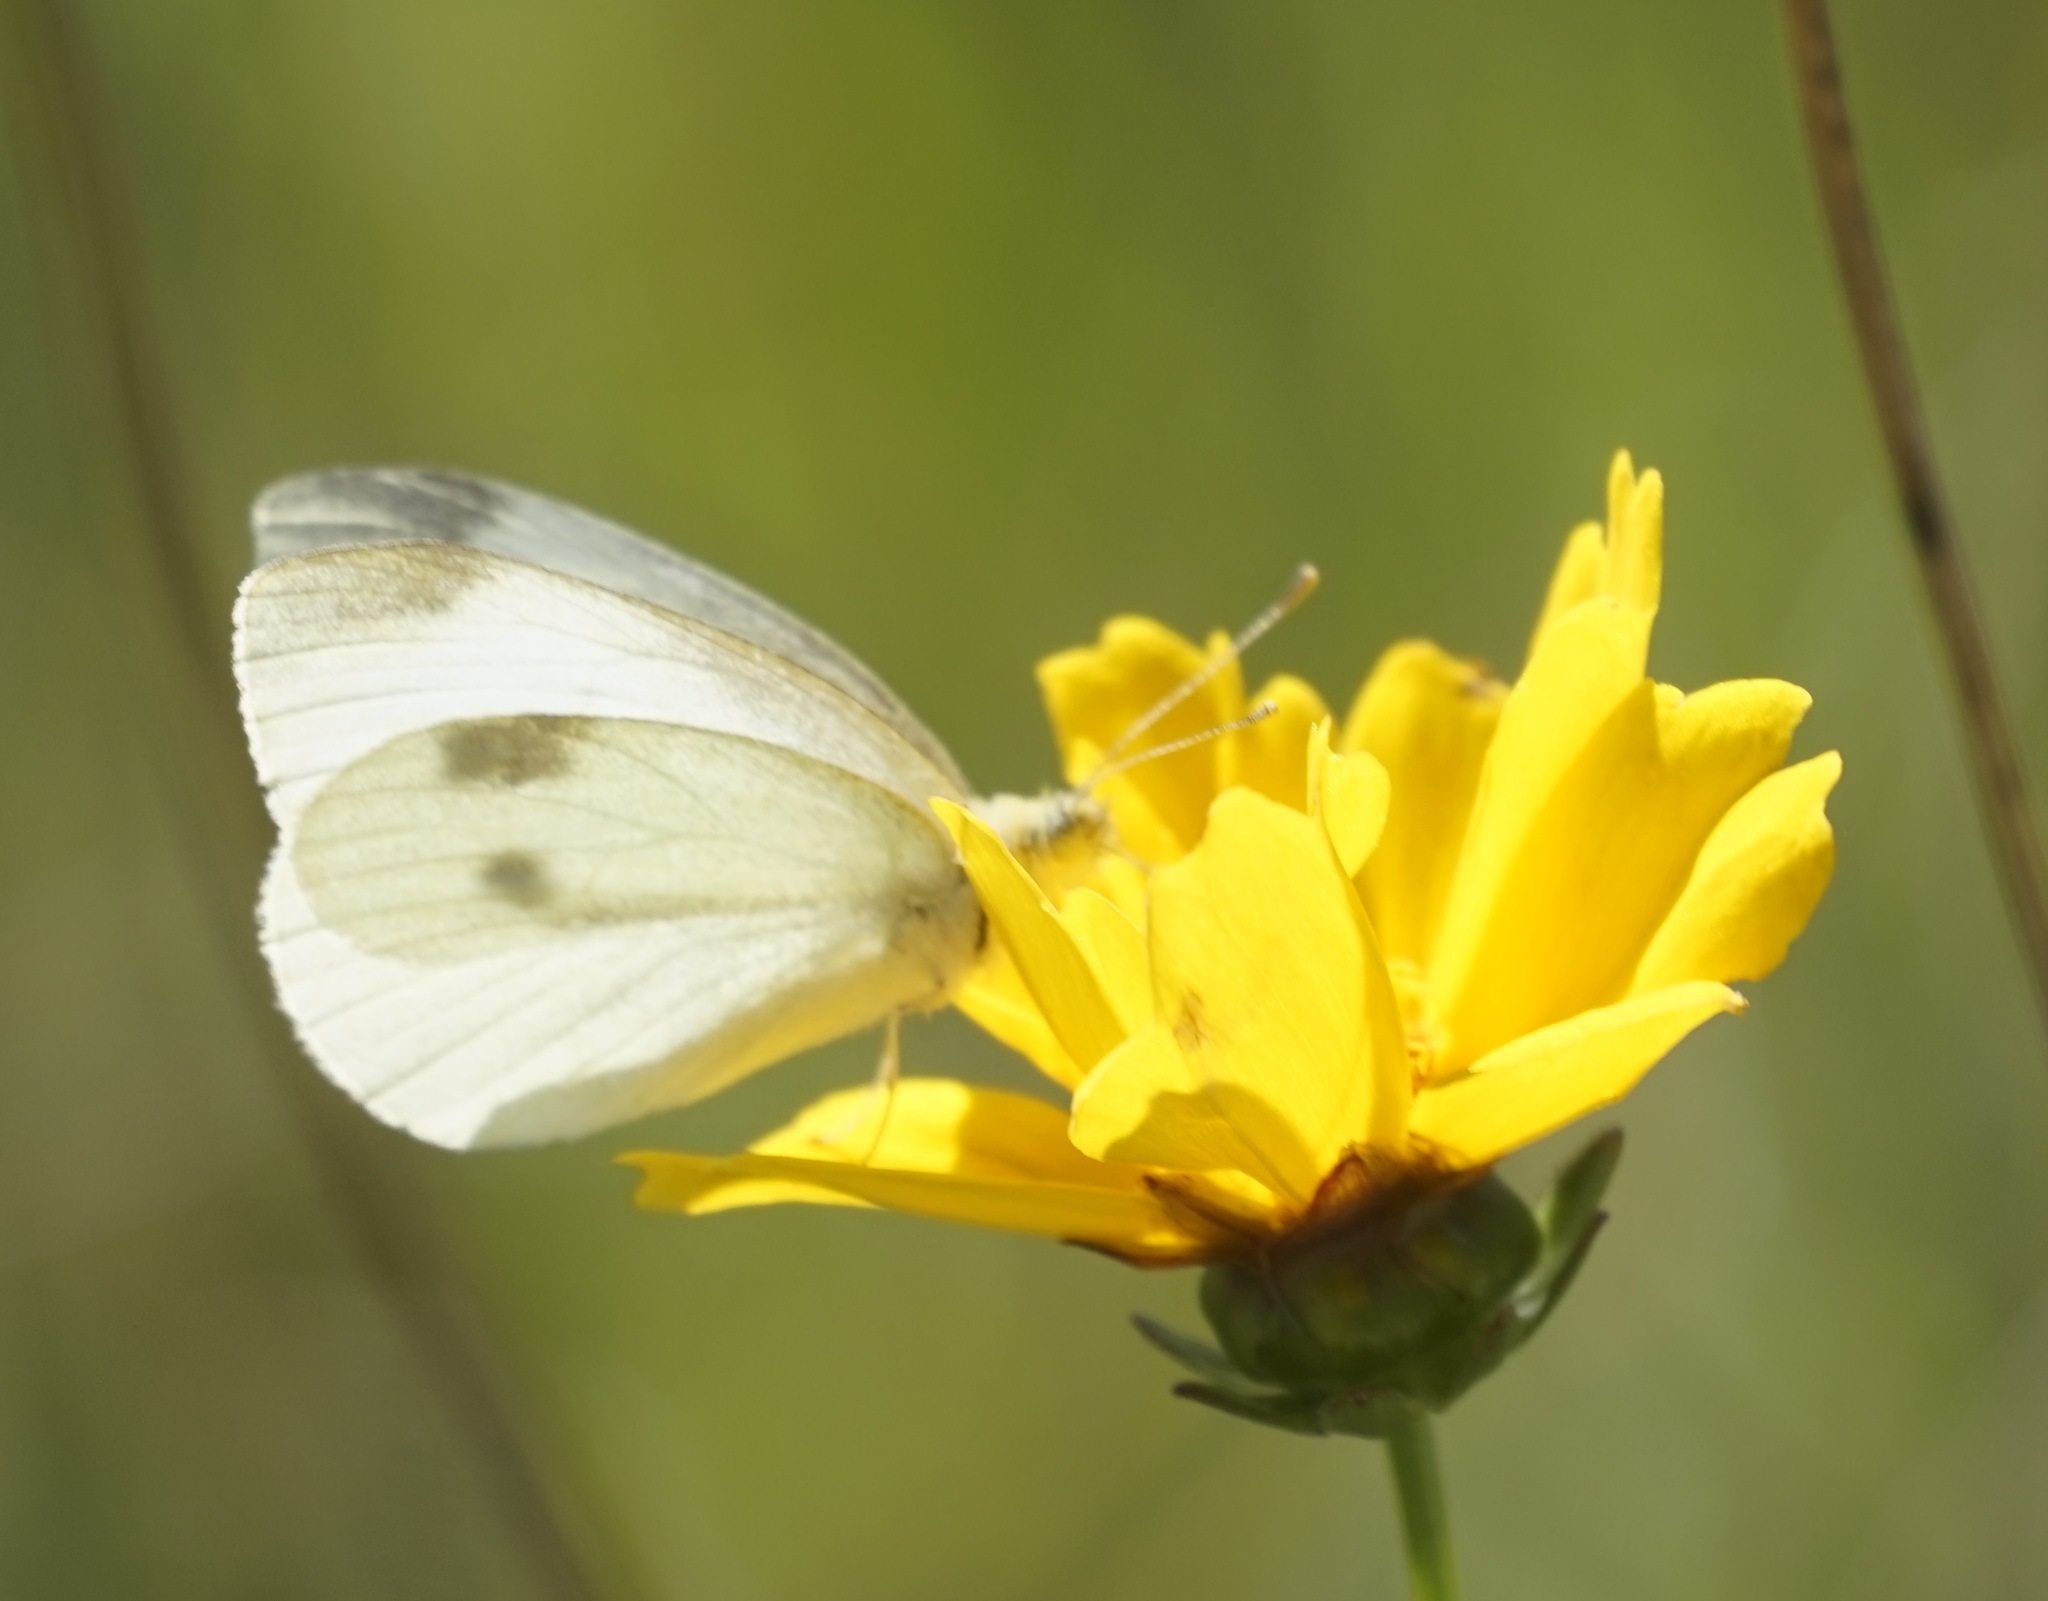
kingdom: Animalia
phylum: Arthropoda
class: Insecta
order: Lepidoptera
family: Pieridae
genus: Pieris
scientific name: Pieris rapae
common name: Small white
